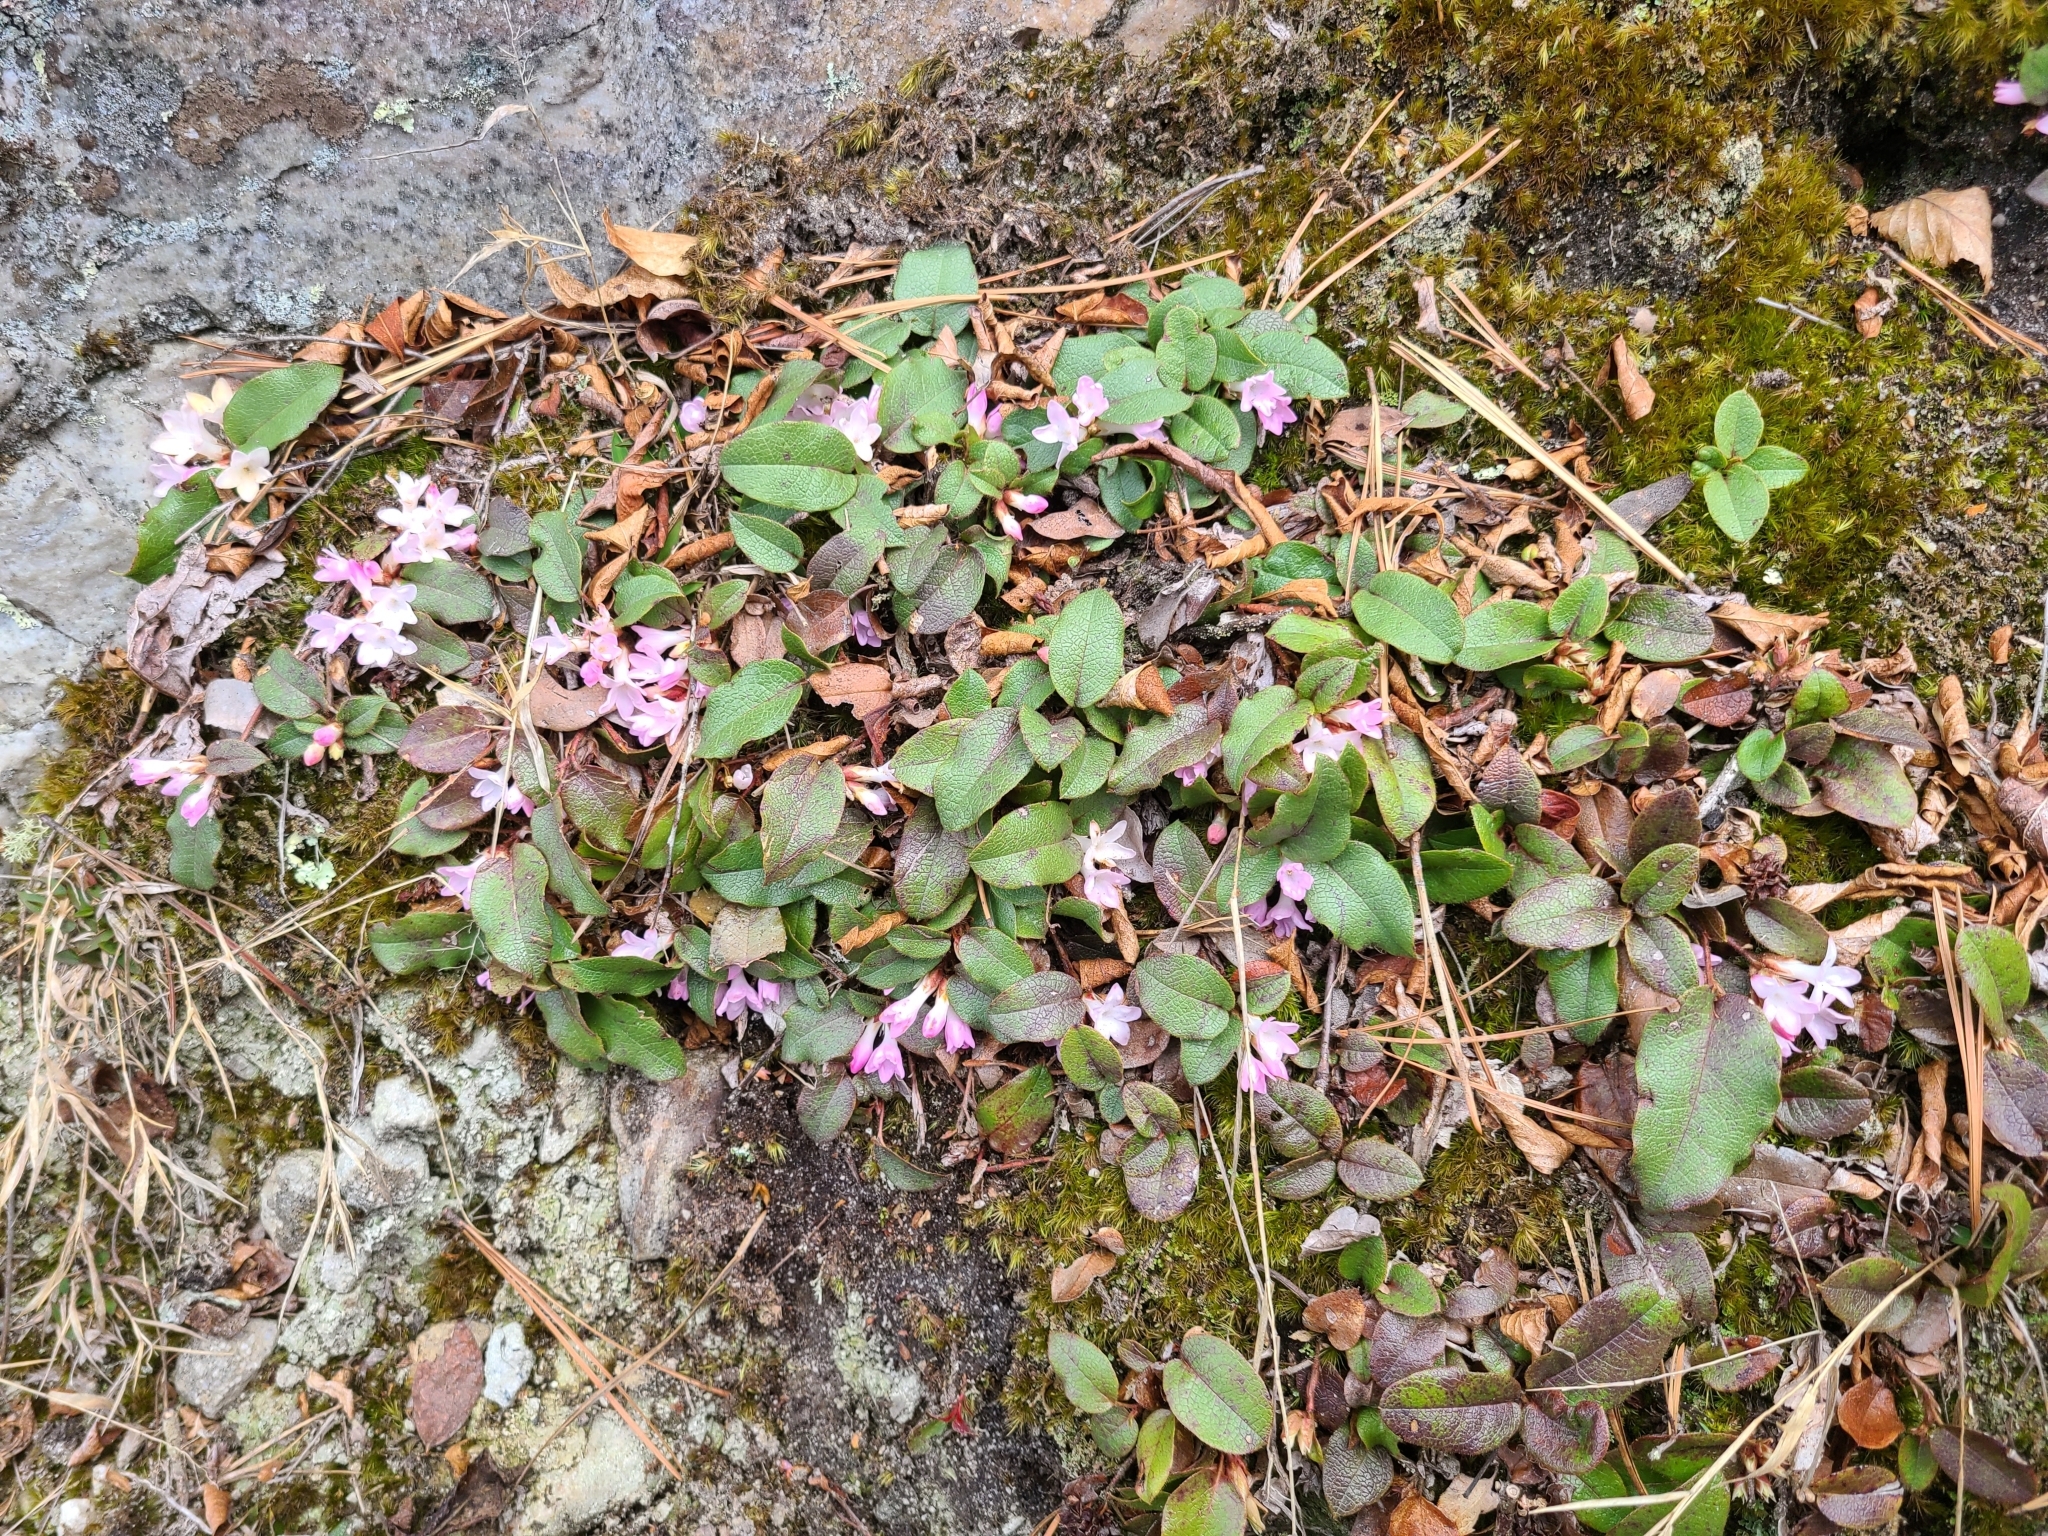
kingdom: Plantae
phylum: Tracheophyta
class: Magnoliopsida
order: Ericales
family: Ericaceae
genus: Epigaea
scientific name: Epigaea repens
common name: Gravelroot
